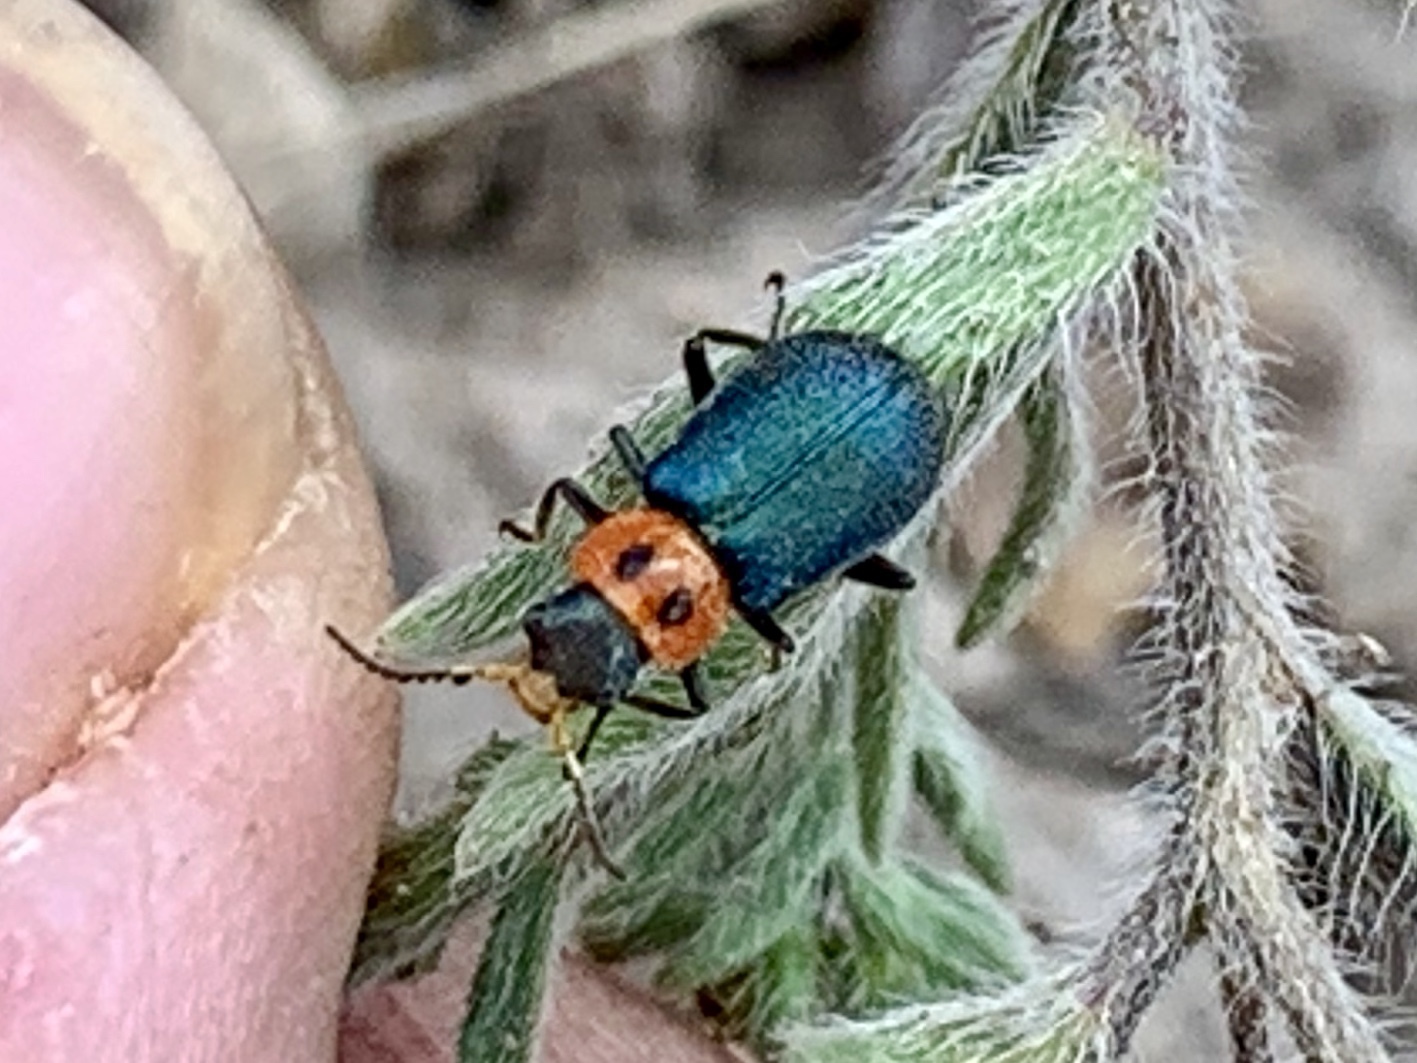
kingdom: Animalia
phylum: Arthropoda
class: Insecta
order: Coleoptera
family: Melyridae
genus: Collops
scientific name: Collops bipunctatus
